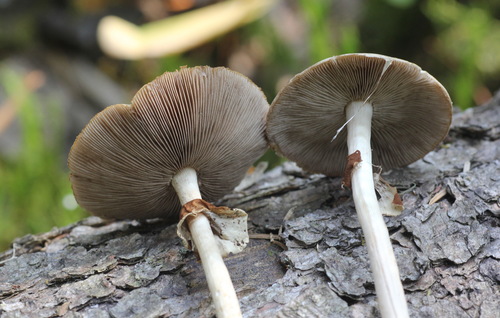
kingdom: Fungi
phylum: Basidiomycota
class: Agaricomycetes
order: Agaricales
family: Strophariaceae
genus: Agrocybe
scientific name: Agrocybe praecox
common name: Spring fieldcap
